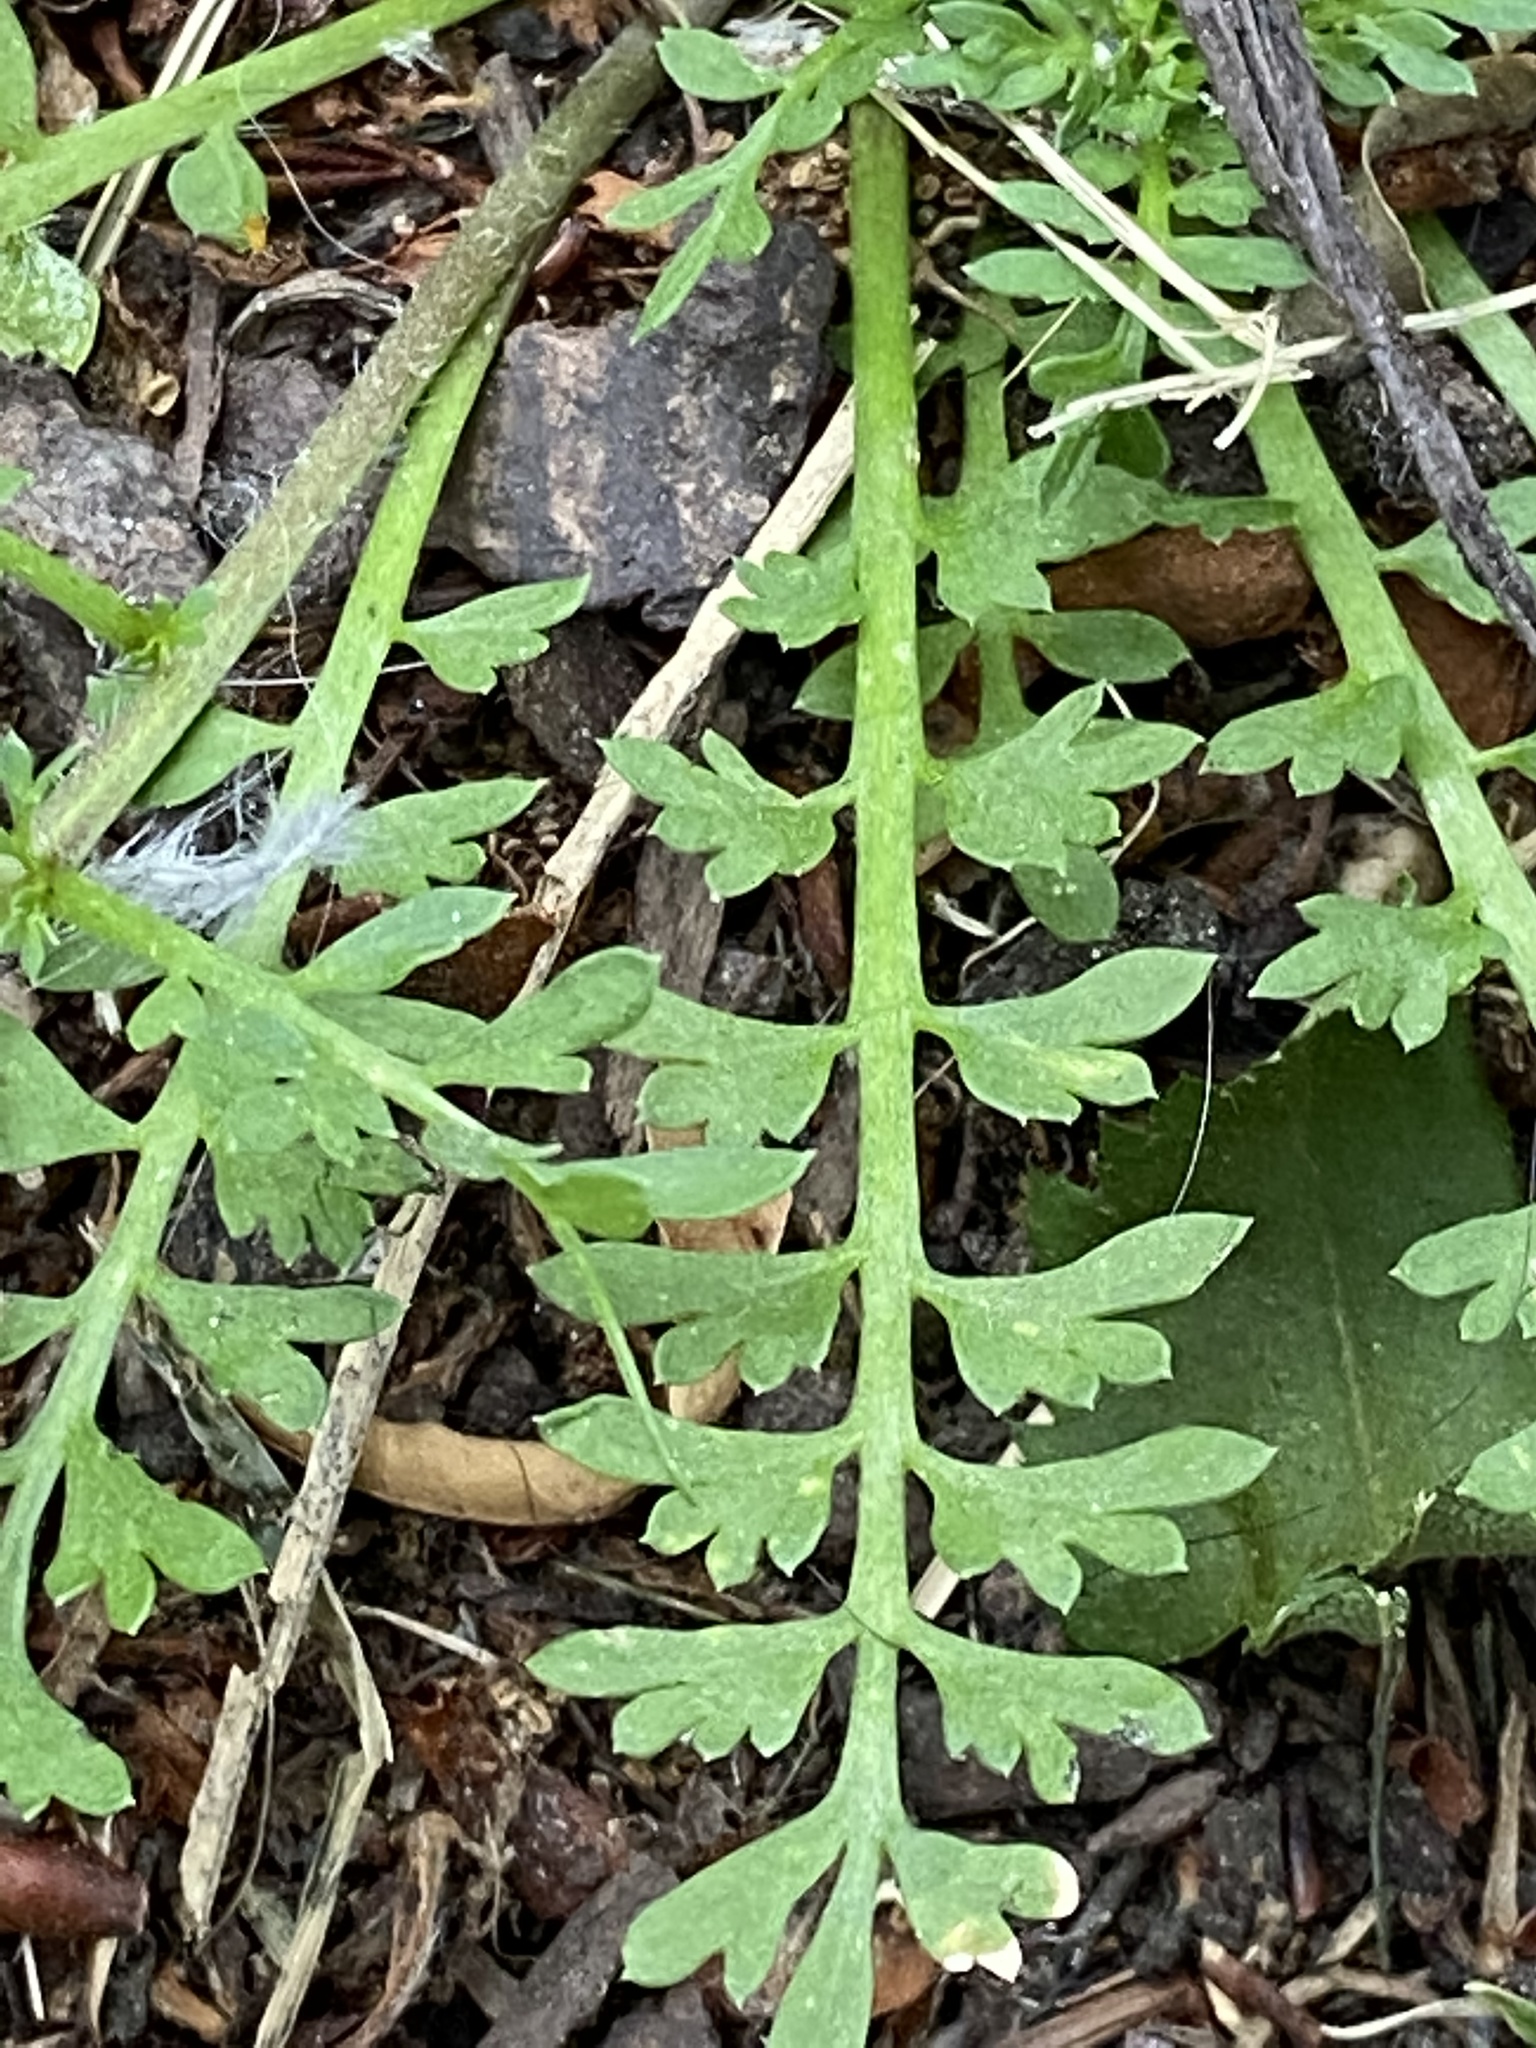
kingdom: Plantae
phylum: Tracheophyta
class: Magnoliopsida
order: Brassicales
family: Brassicaceae
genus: Lepidium
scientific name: Lepidium didymum
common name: Lesser swinecress
